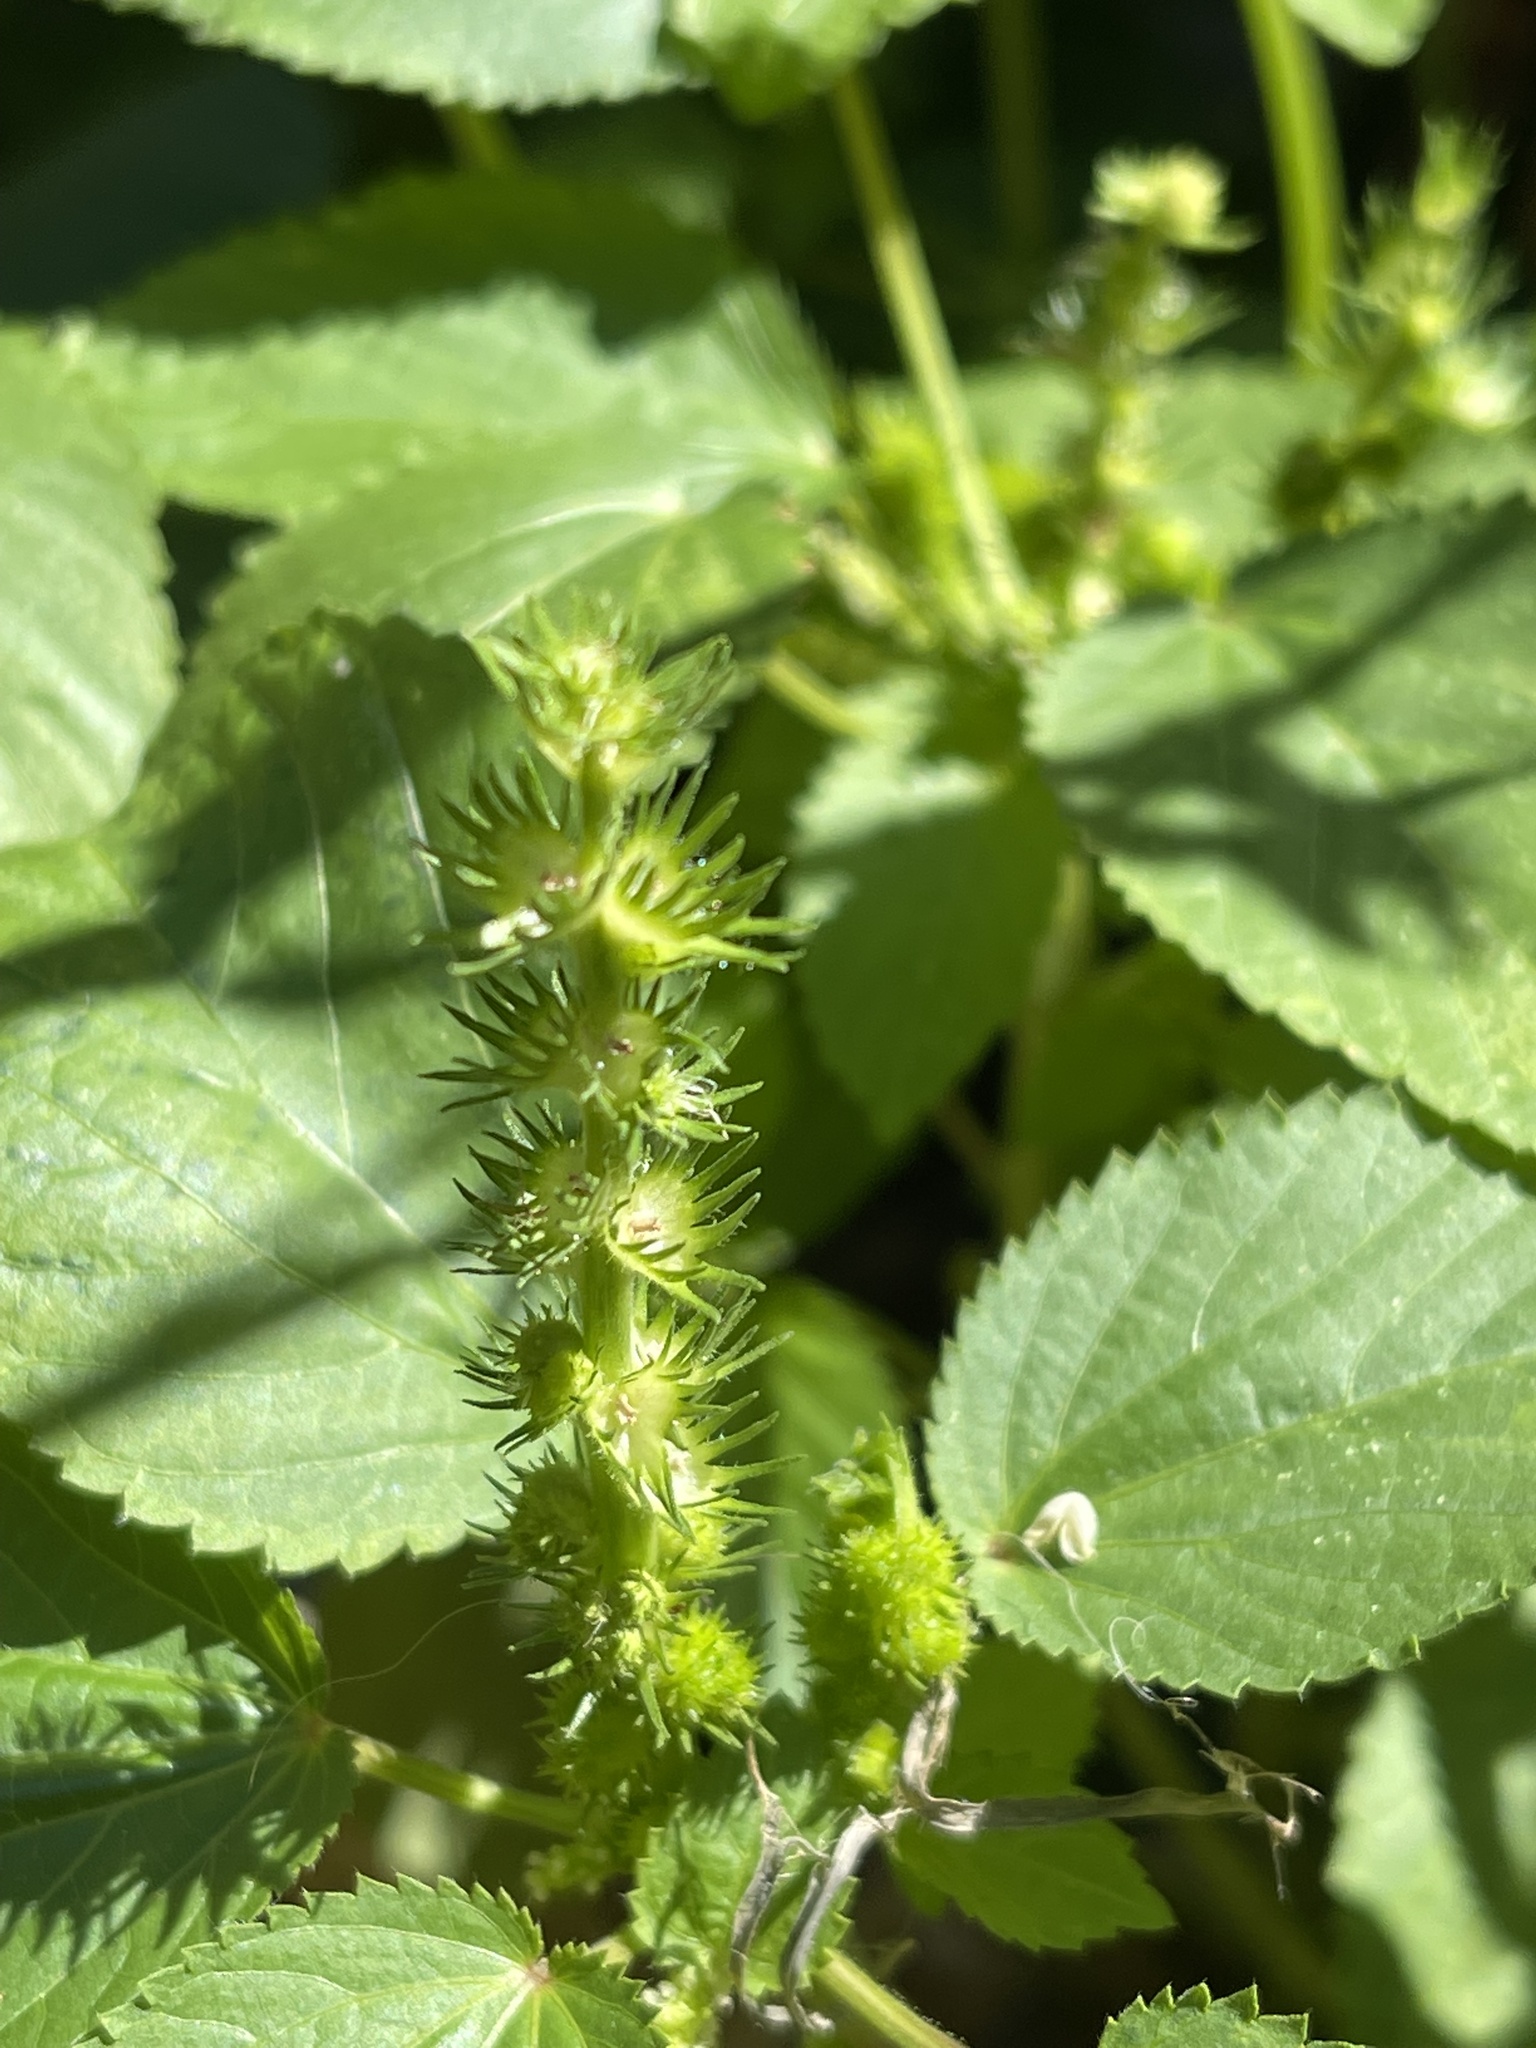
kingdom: Plantae
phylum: Tracheophyta
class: Magnoliopsida
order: Malpighiales
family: Euphorbiaceae
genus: Acalypha
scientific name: Acalypha ostryifolia
